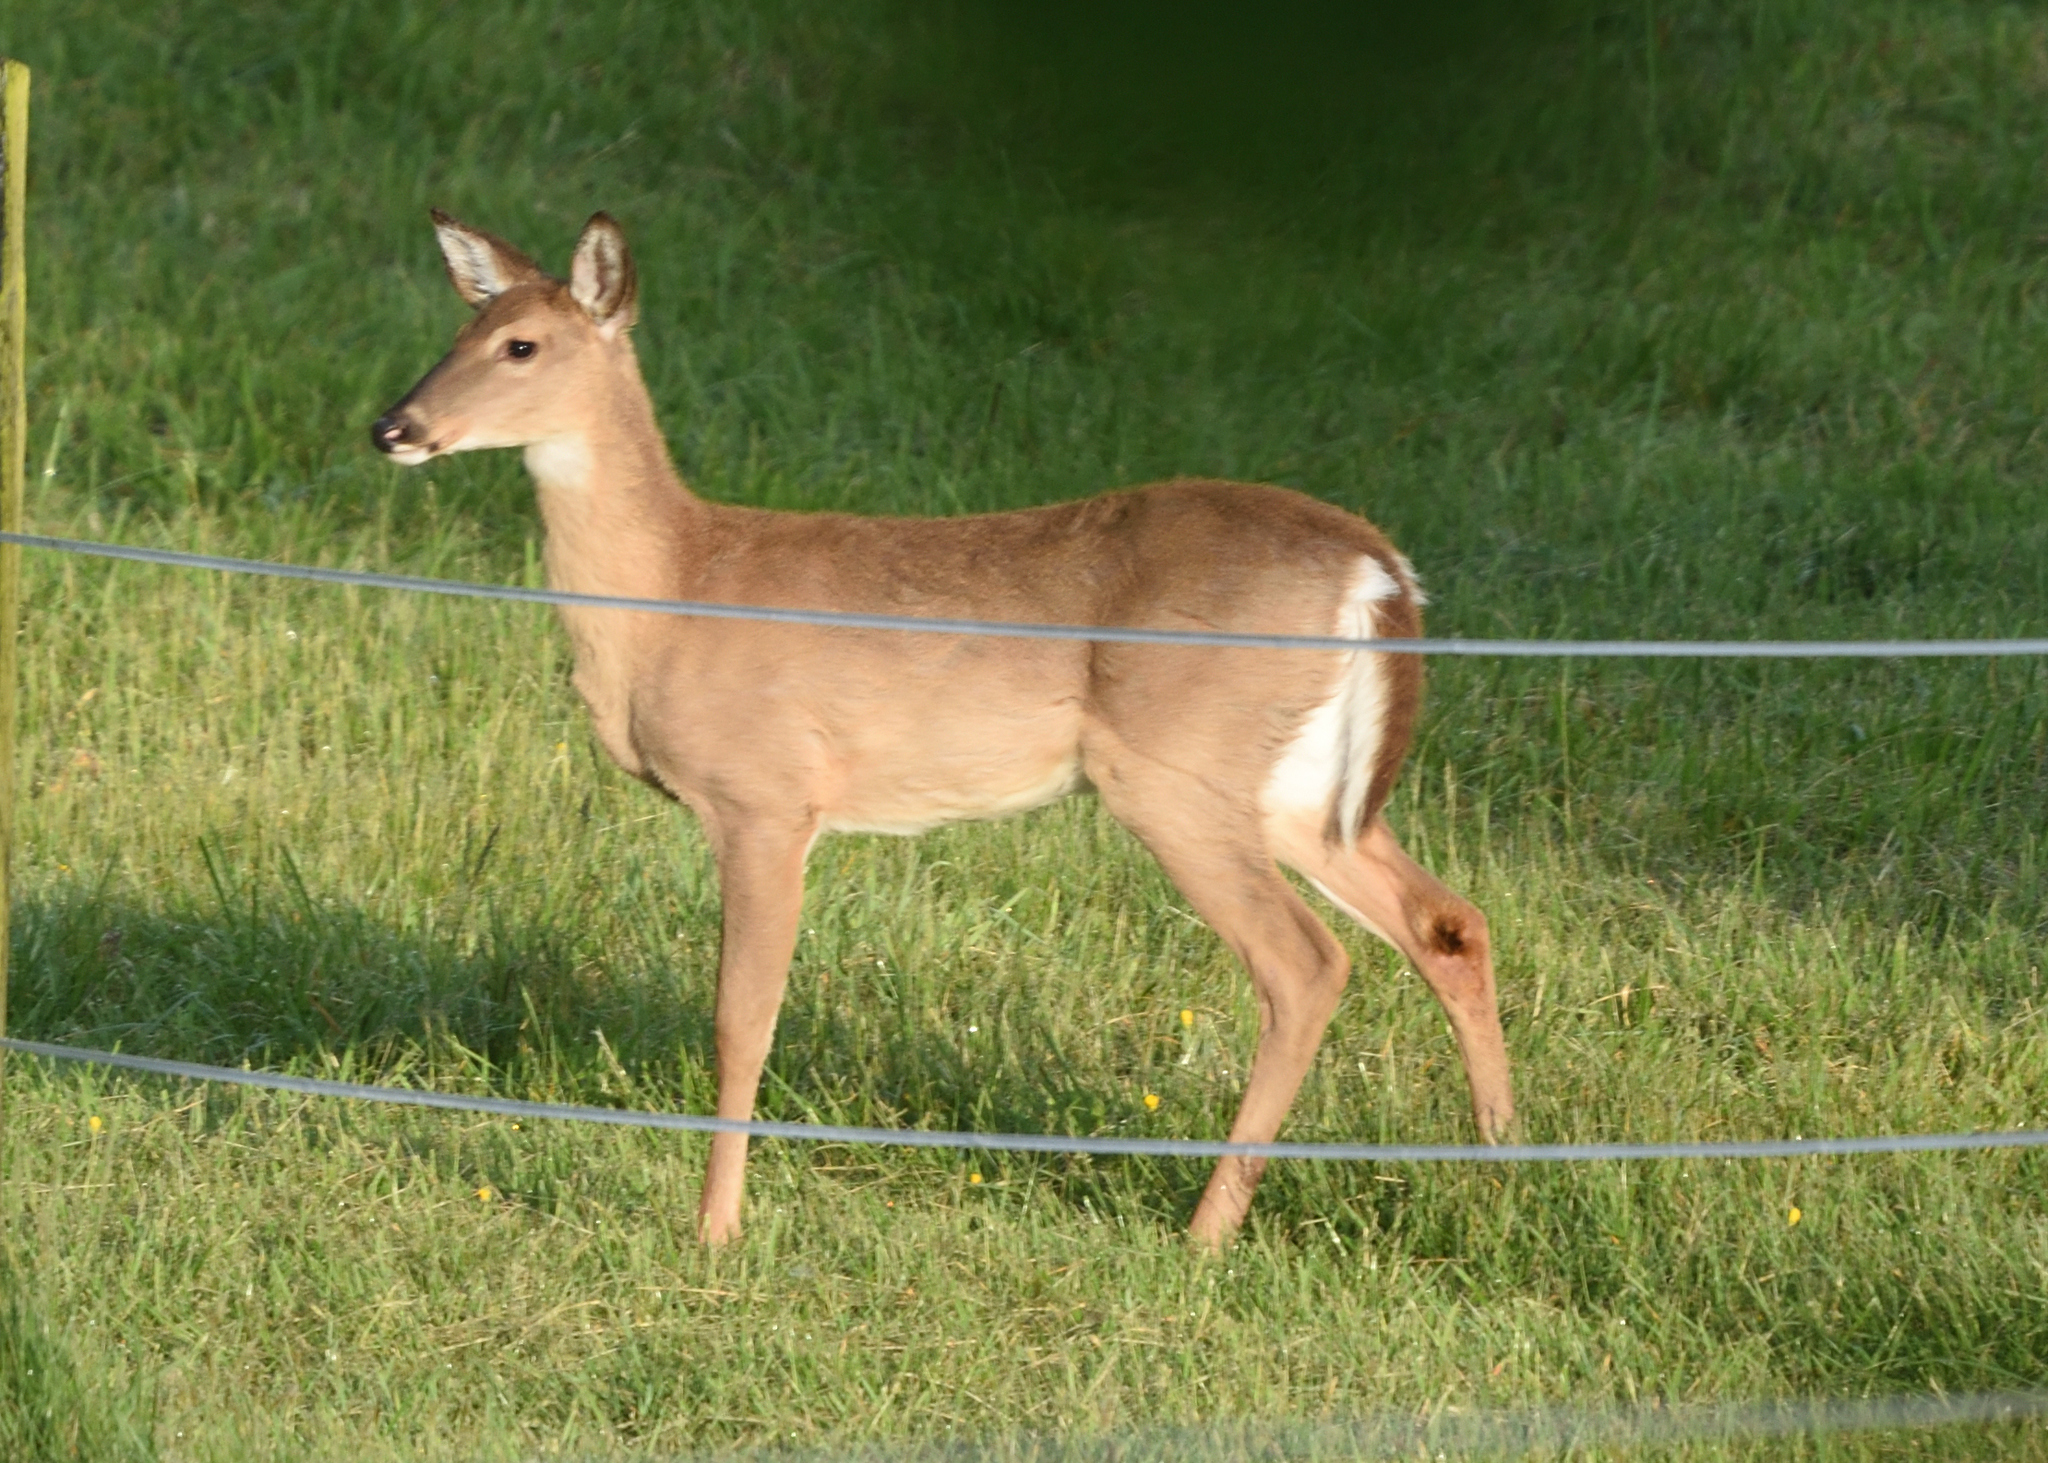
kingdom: Animalia
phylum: Chordata
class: Mammalia
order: Artiodactyla
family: Cervidae
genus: Odocoileus
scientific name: Odocoileus virginianus
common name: White-tailed deer
